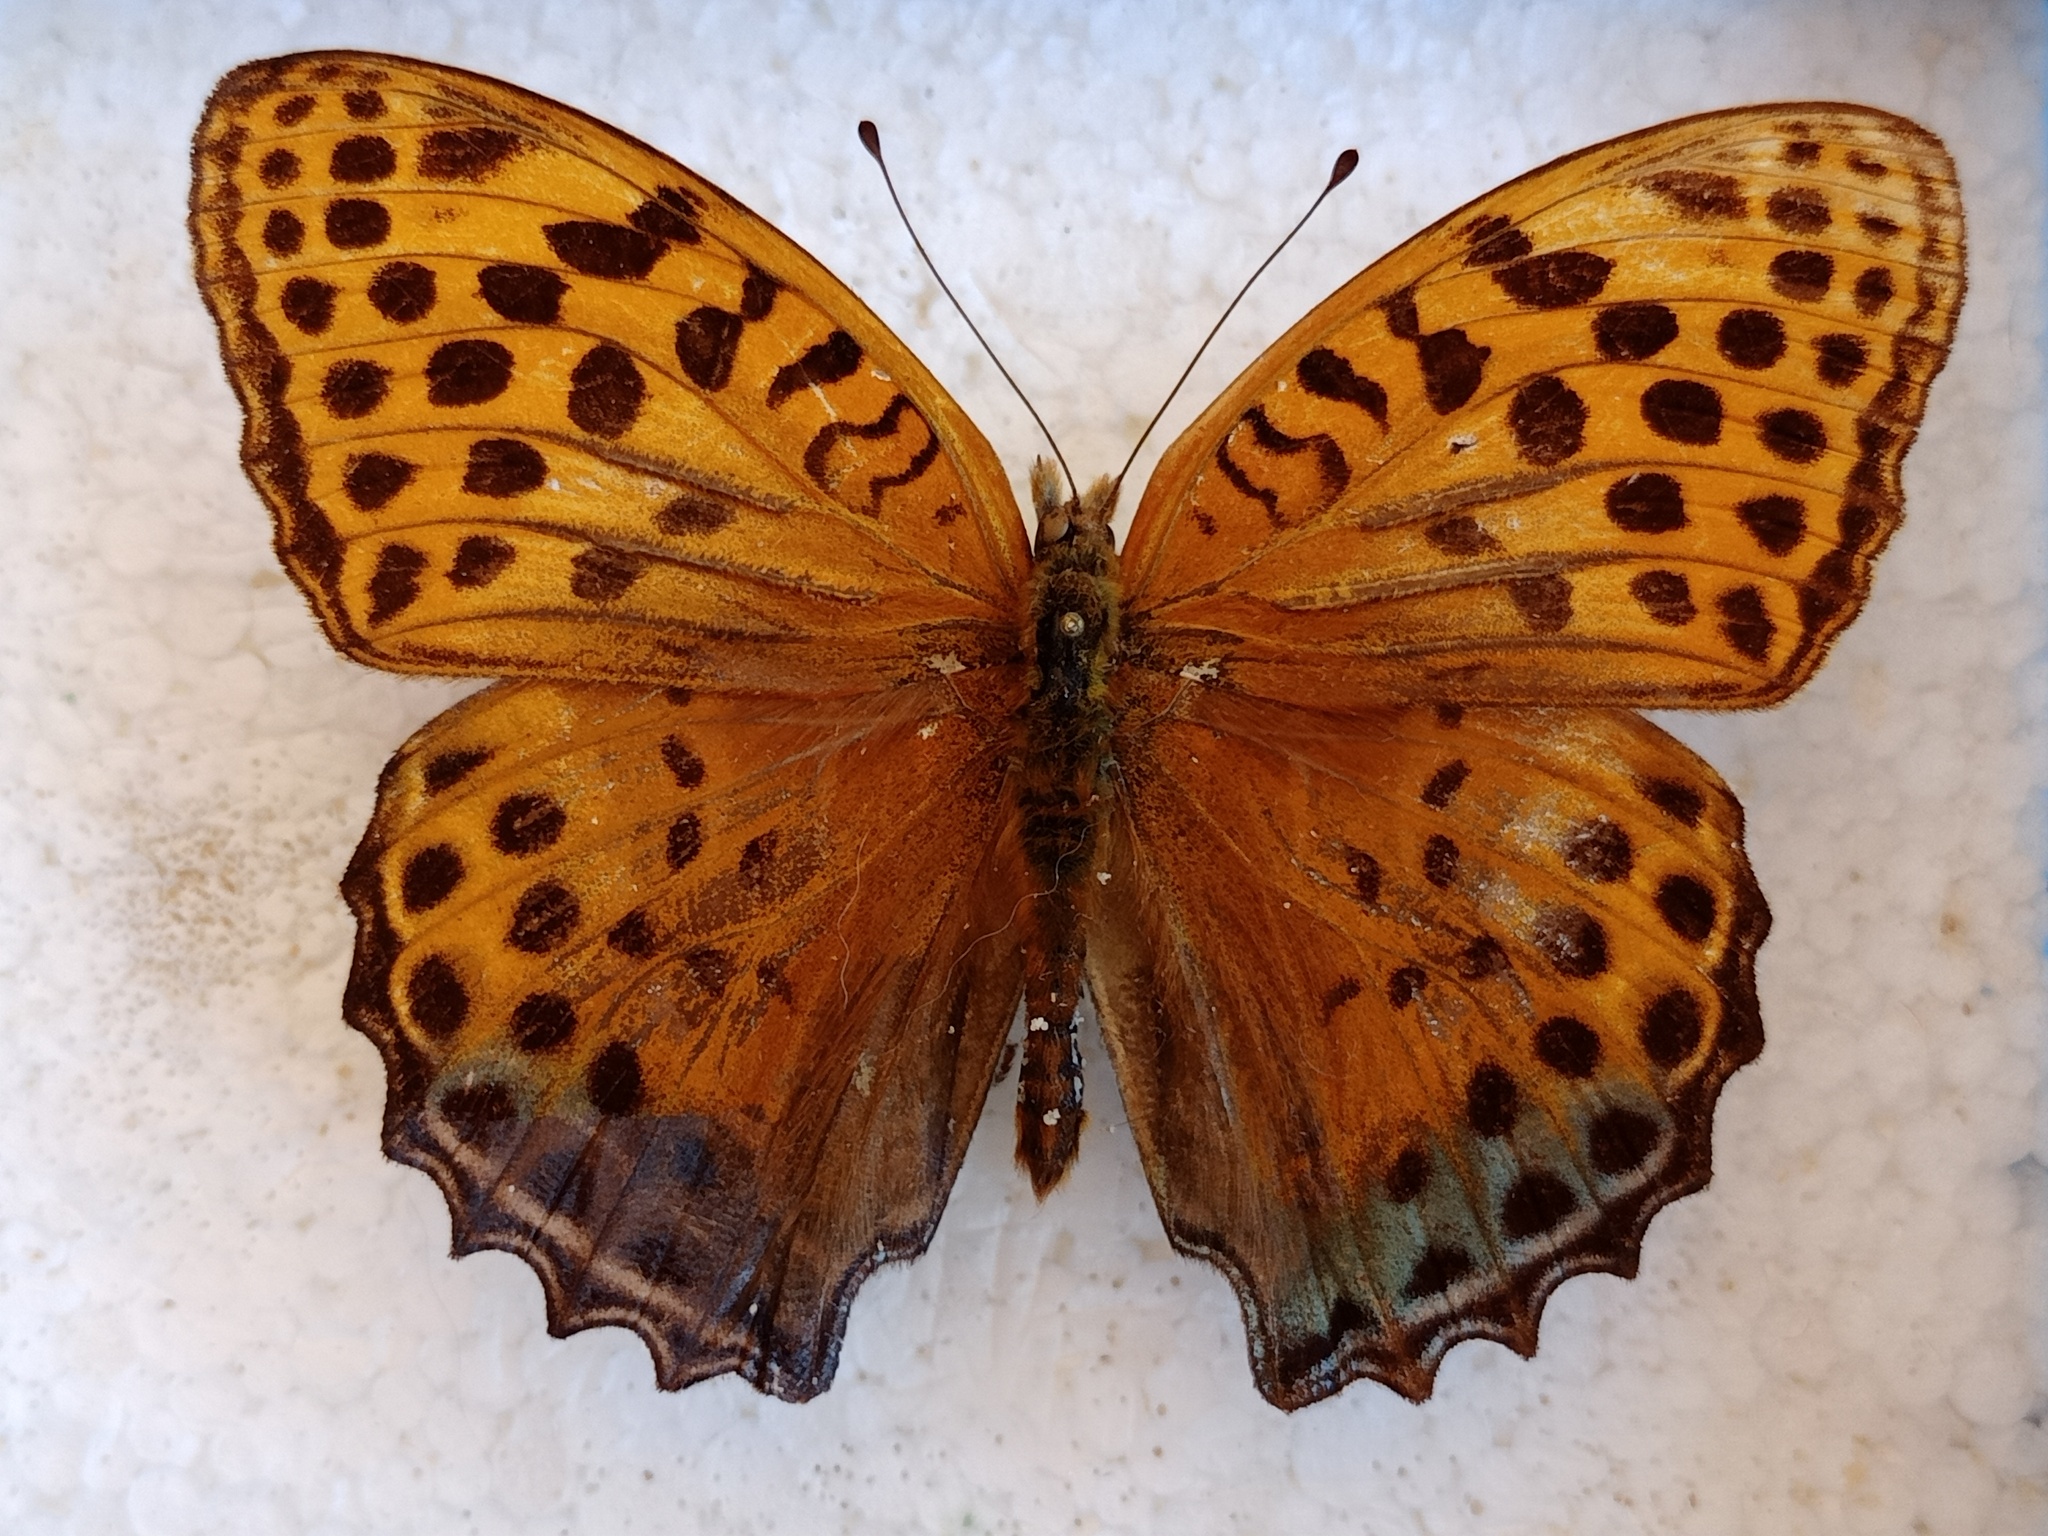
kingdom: Animalia
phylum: Arthropoda
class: Insecta
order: Lepidoptera
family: Nymphalidae
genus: Childrena
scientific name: Childrena childreni
